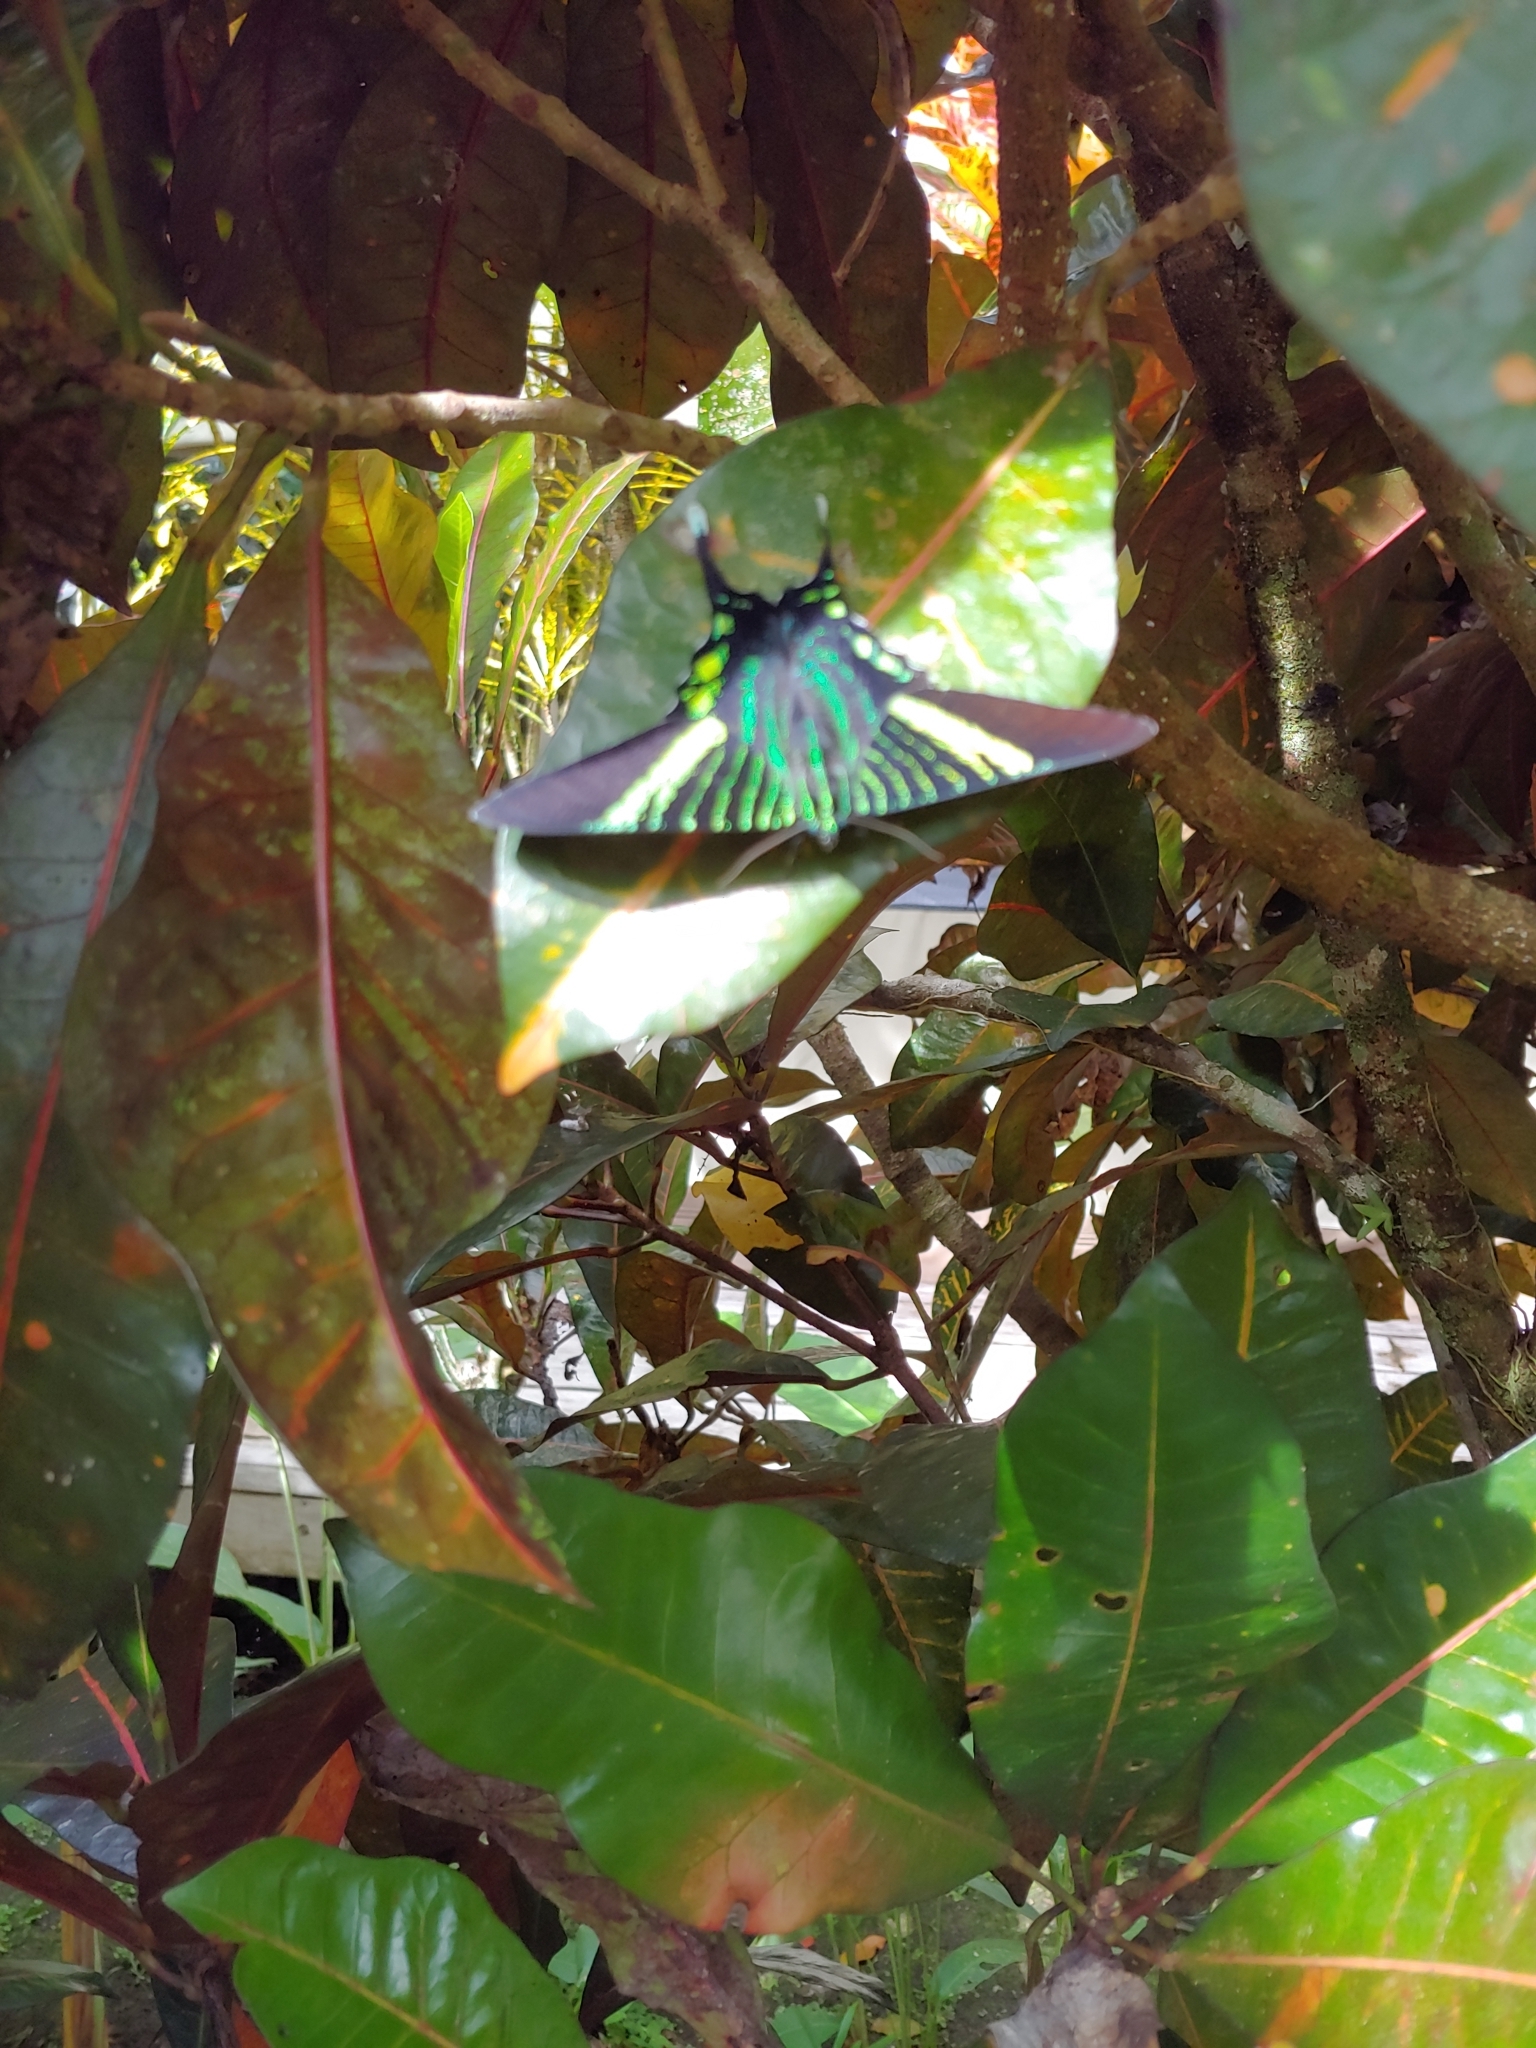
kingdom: Animalia
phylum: Arthropoda
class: Insecta
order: Lepidoptera
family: Uraniidae
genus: Urania
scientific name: Urania fulgens
